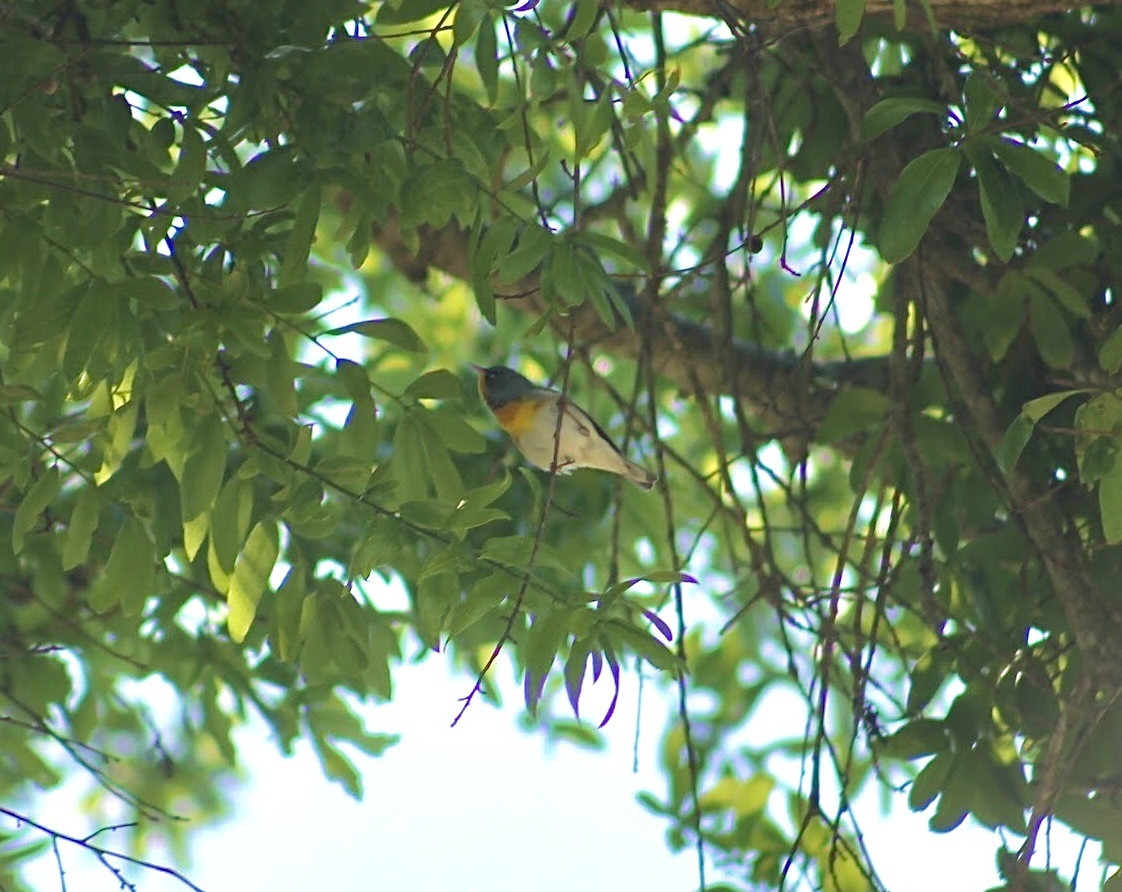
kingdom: Animalia
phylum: Chordata
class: Aves
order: Passeriformes
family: Parulidae
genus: Setophaga
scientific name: Setophaga americana
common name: Northern parula
